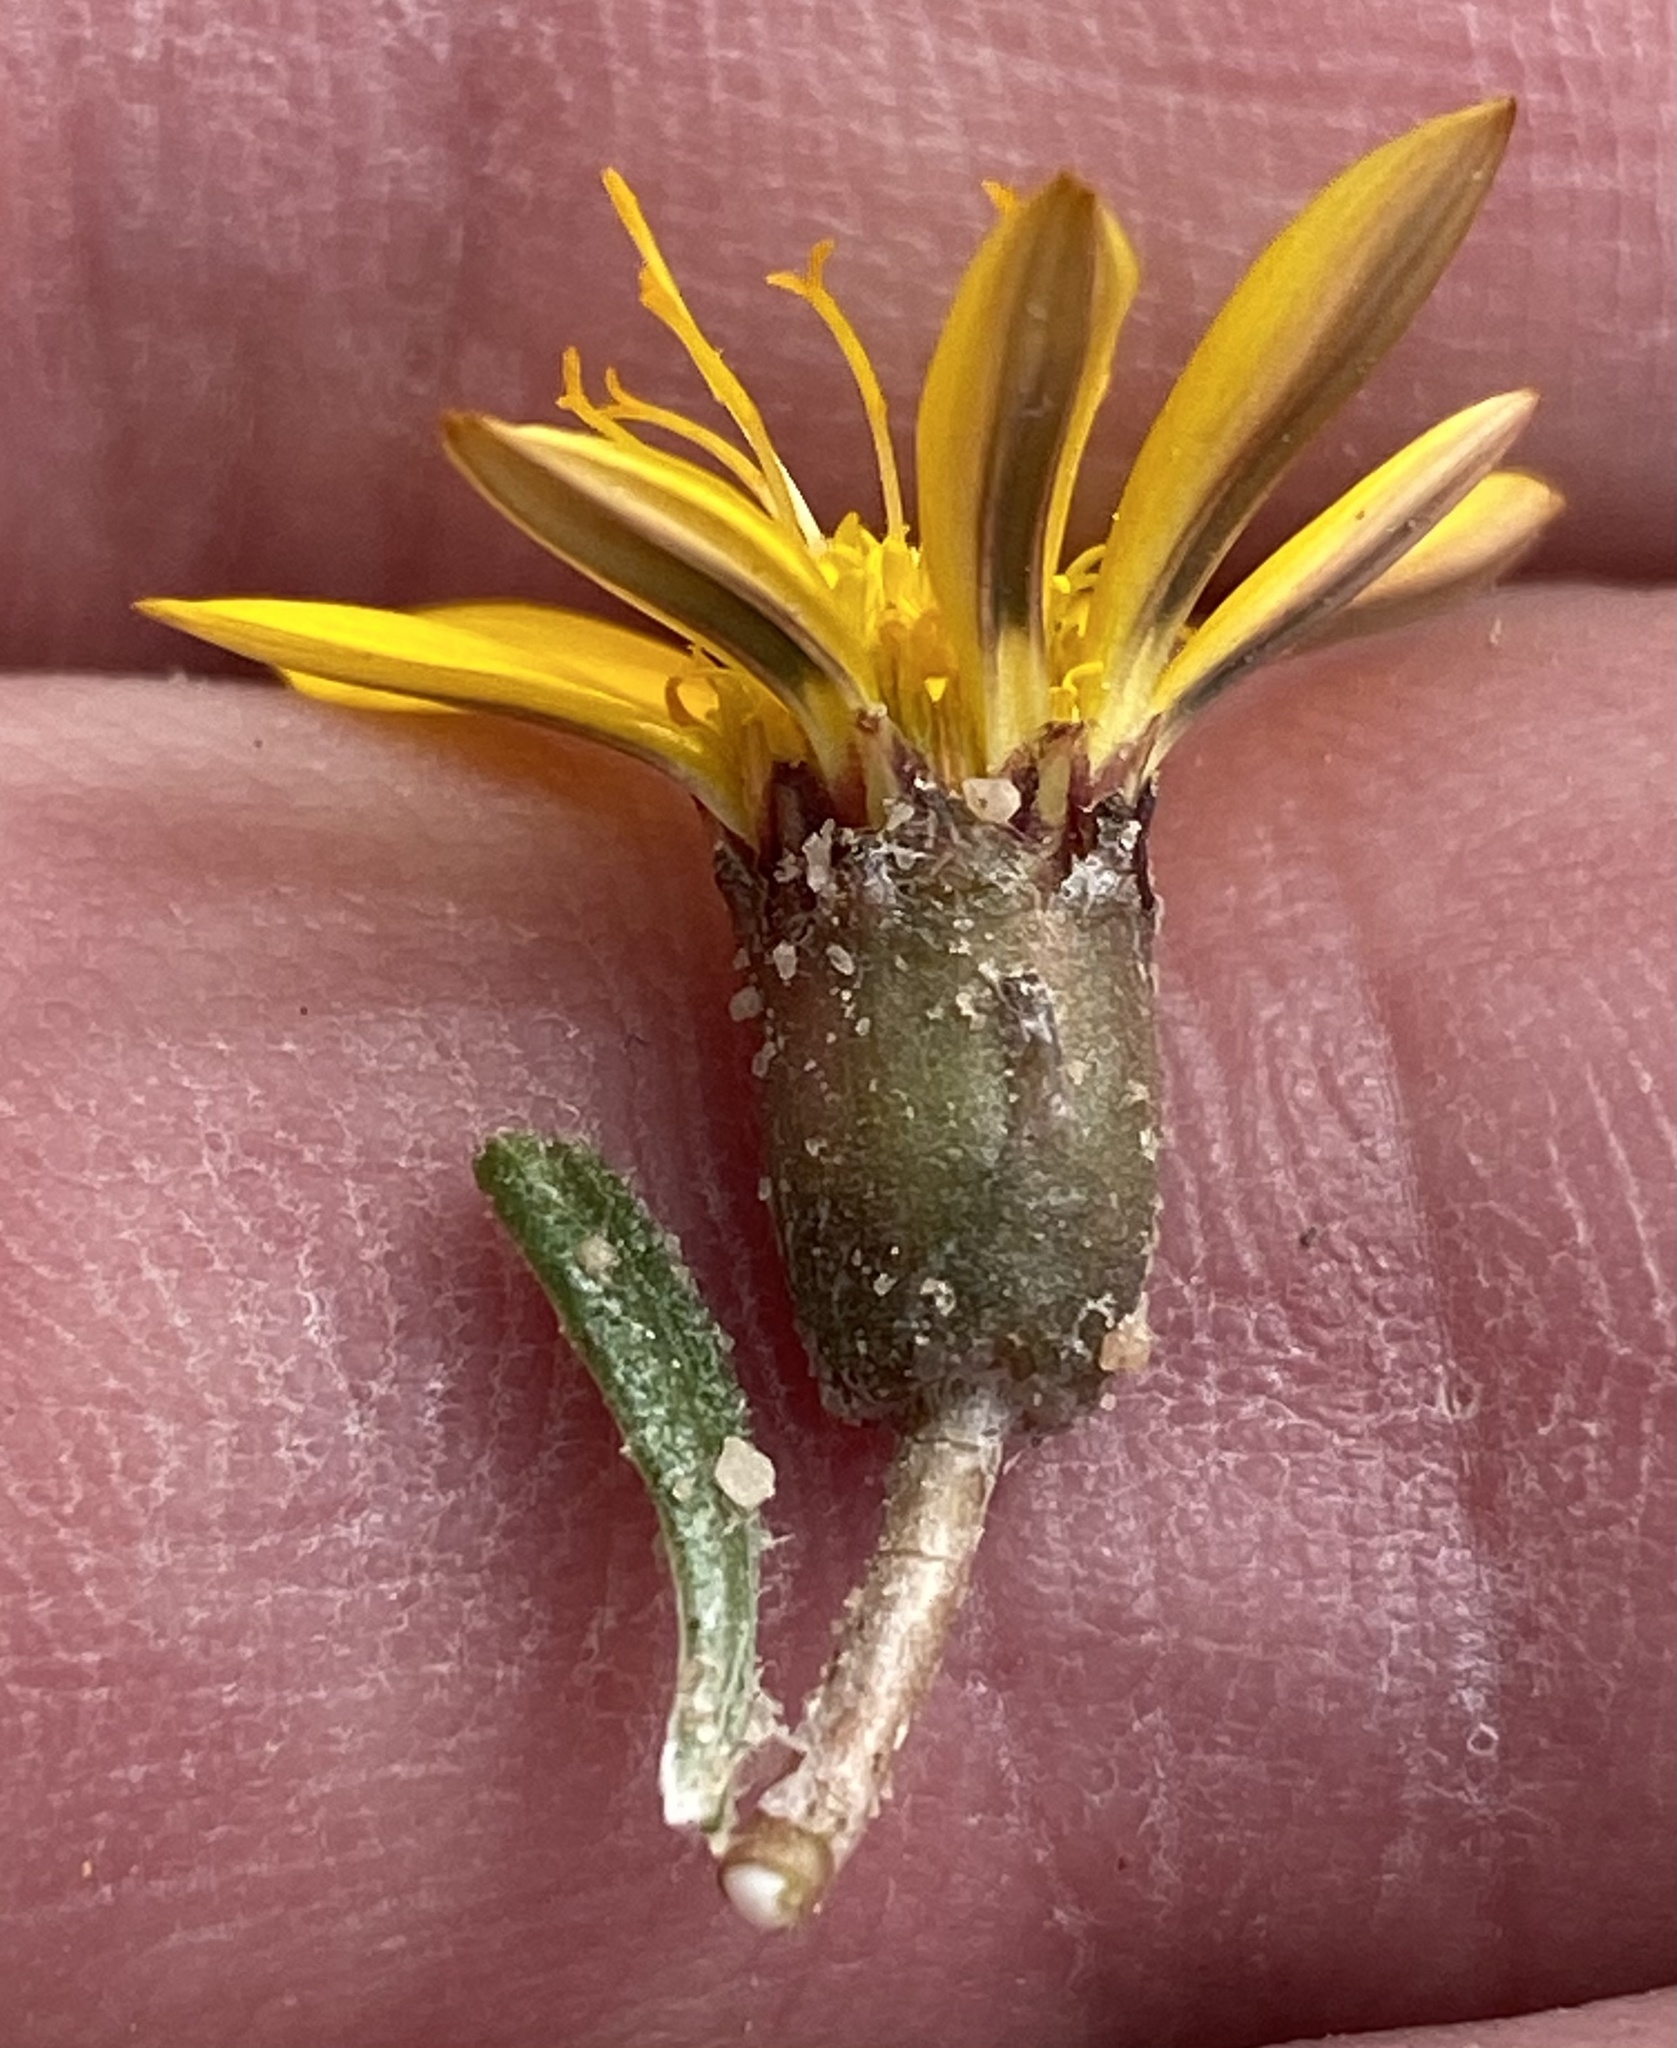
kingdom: Plantae
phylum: Tracheophyta
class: Magnoliopsida
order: Asterales
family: Asteraceae
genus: Gazania
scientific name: Gazania krebsiana
